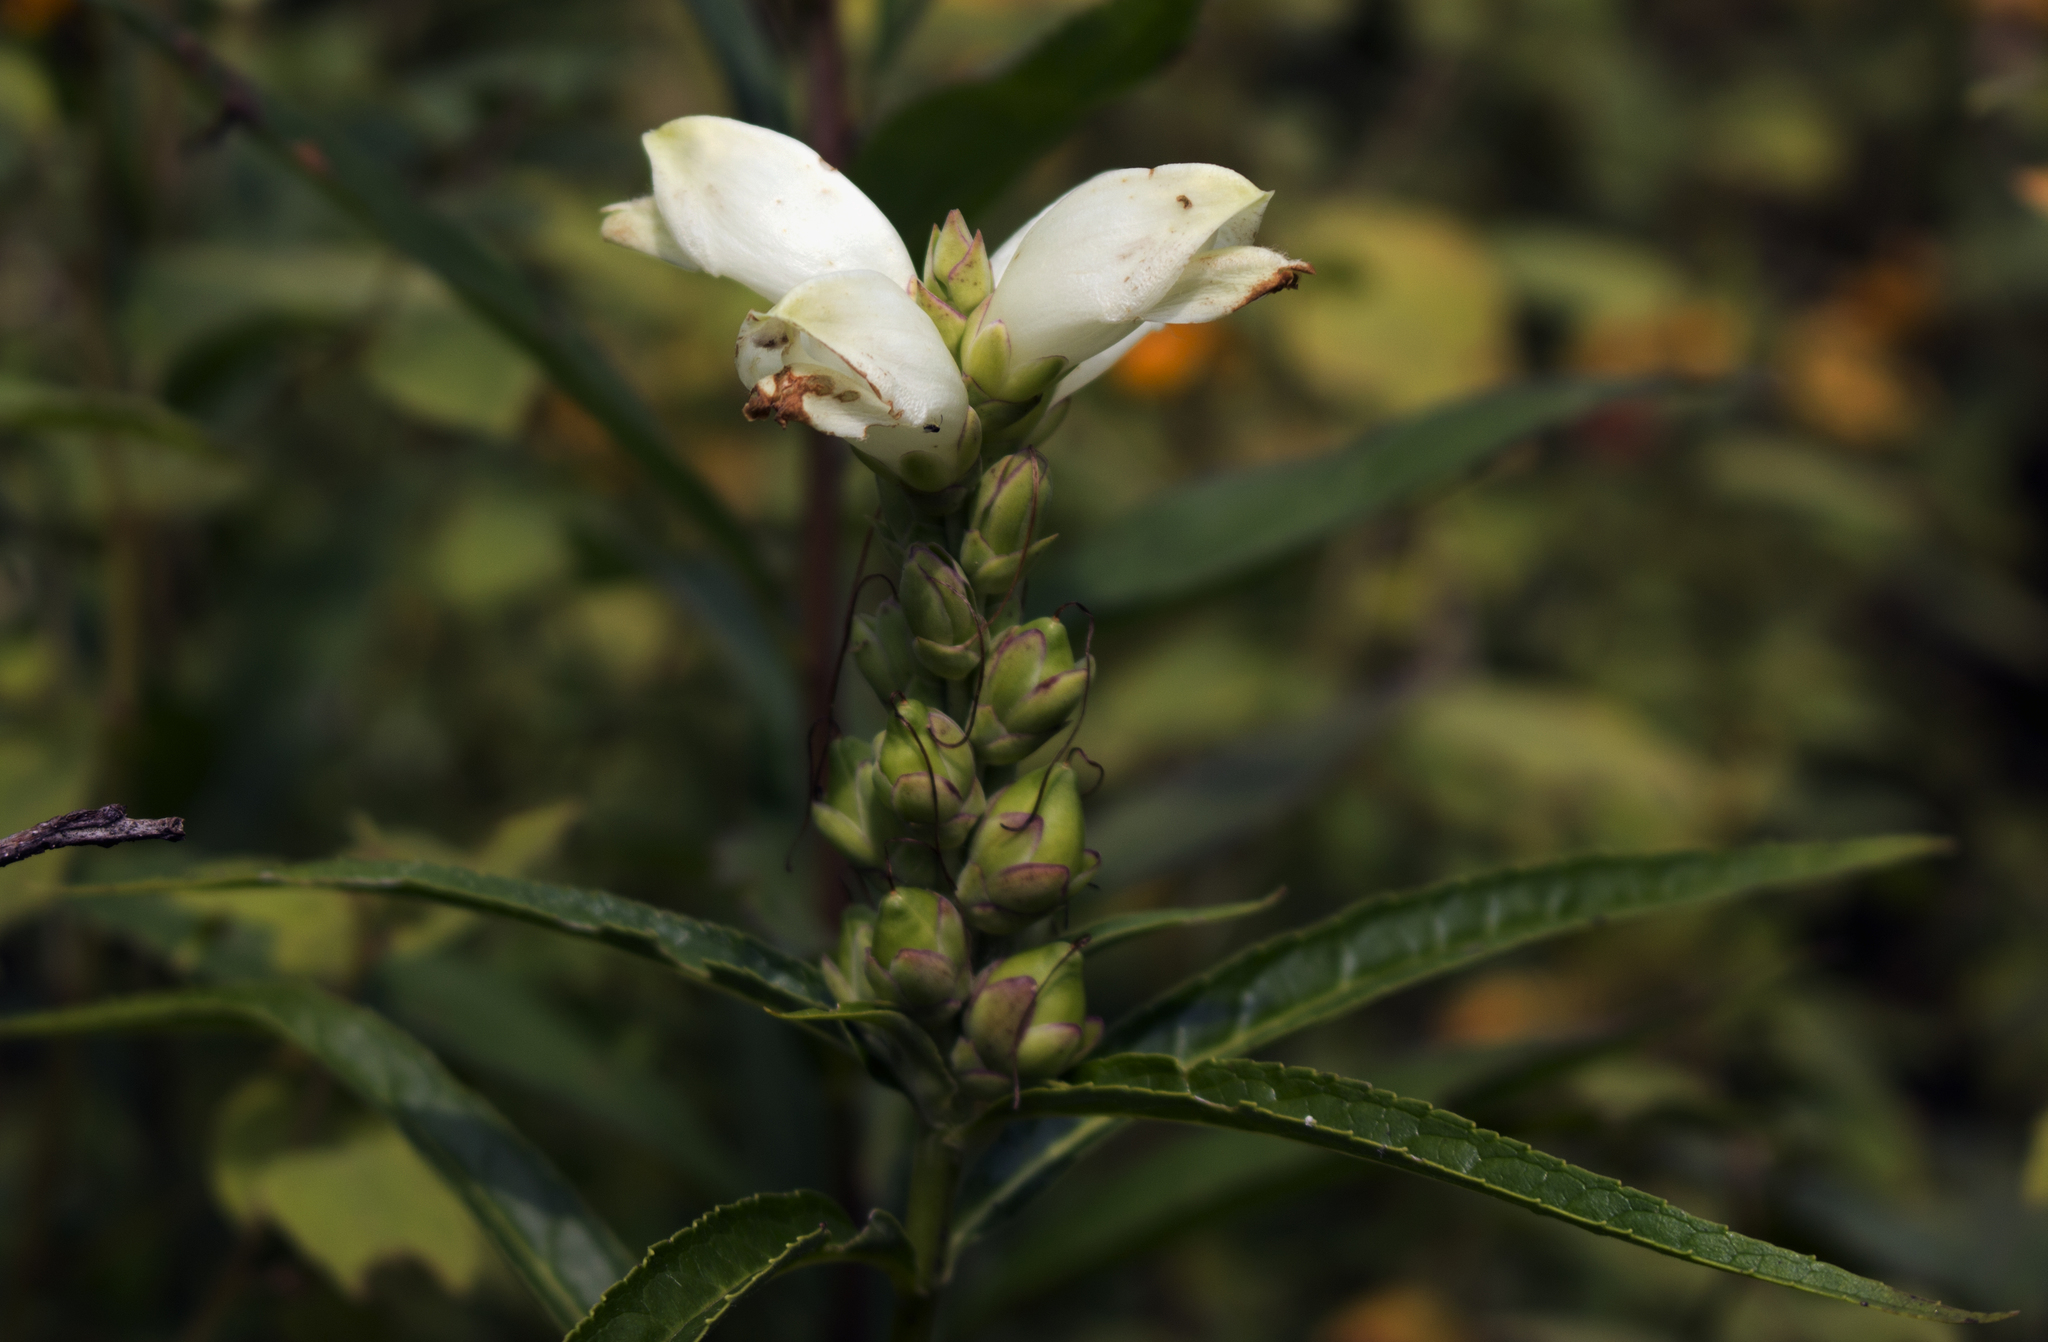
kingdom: Plantae
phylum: Tracheophyta
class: Magnoliopsida
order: Lamiales
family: Plantaginaceae
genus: Chelone
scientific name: Chelone glabra
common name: Snakehead
